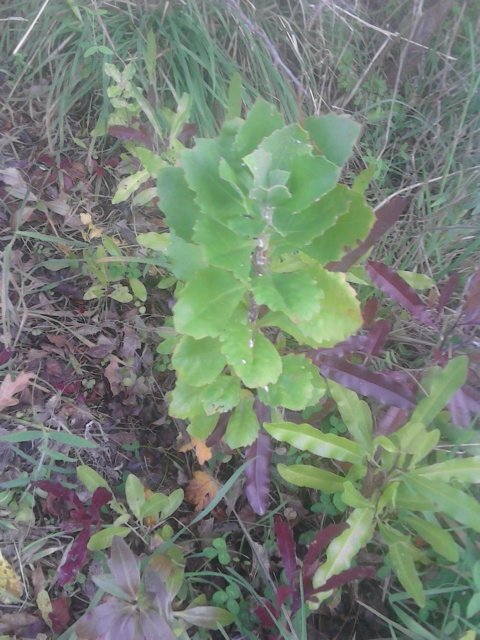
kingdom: Plantae
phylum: Tracheophyta
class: Magnoliopsida
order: Asterales
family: Asteraceae
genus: Osteospermum
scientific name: Osteospermum moniliferum
